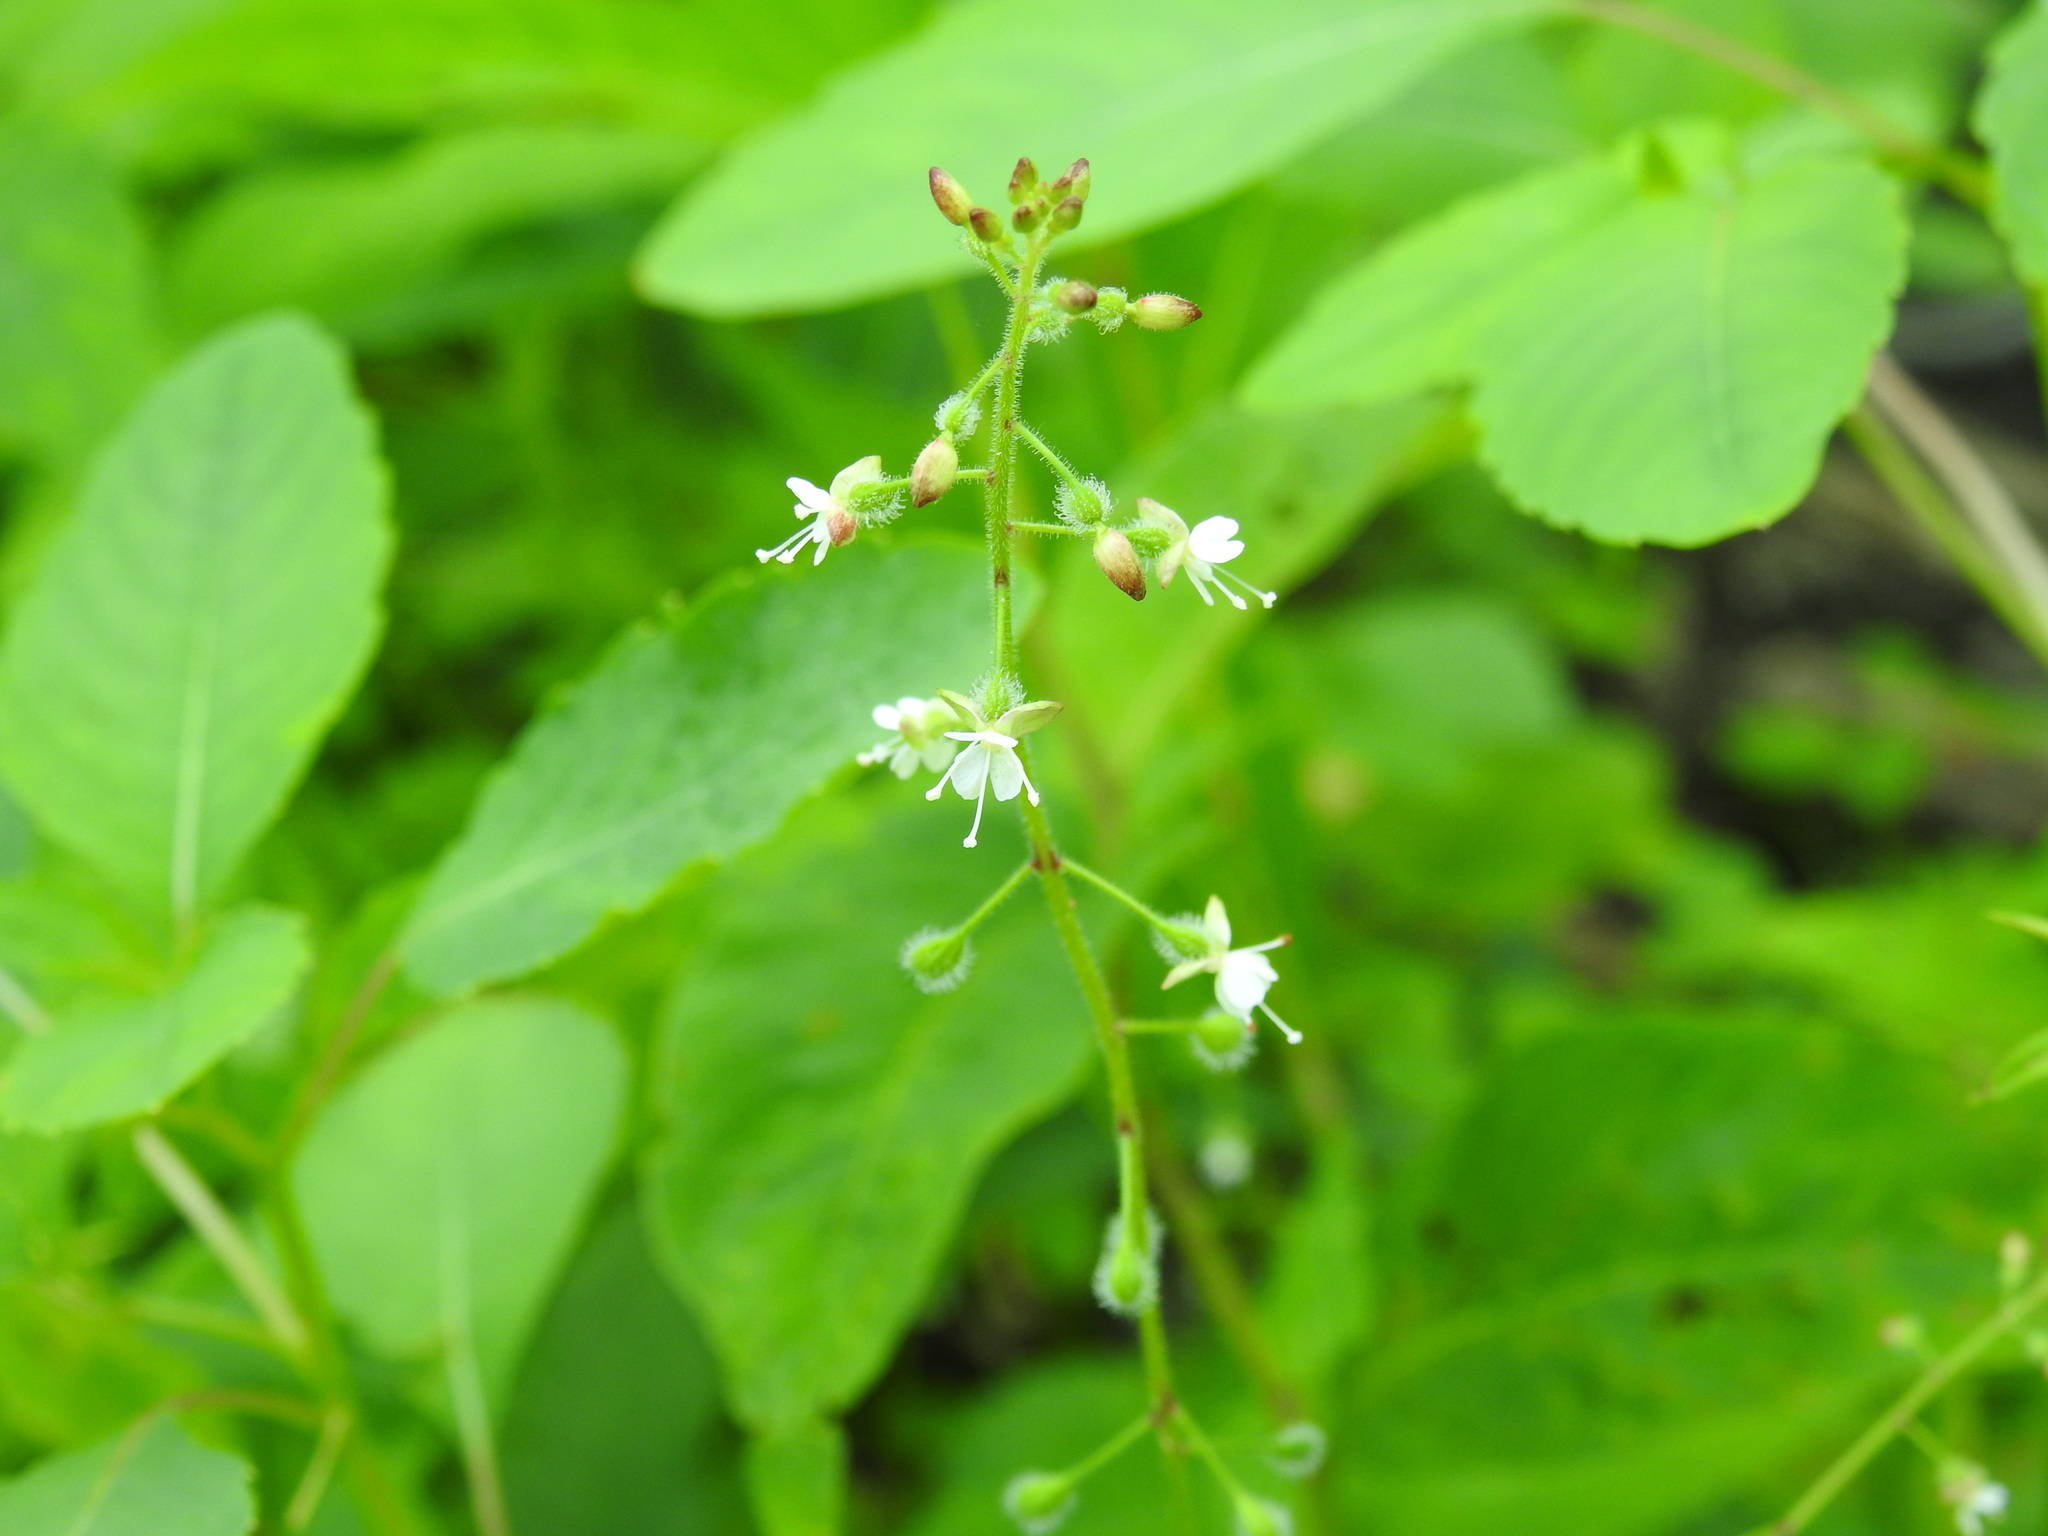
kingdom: Plantae
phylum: Tracheophyta
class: Magnoliopsida
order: Myrtales
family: Onagraceae
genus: Circaea
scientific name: Circaea canadensis
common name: Broad-leaved enchanter's nightshade
